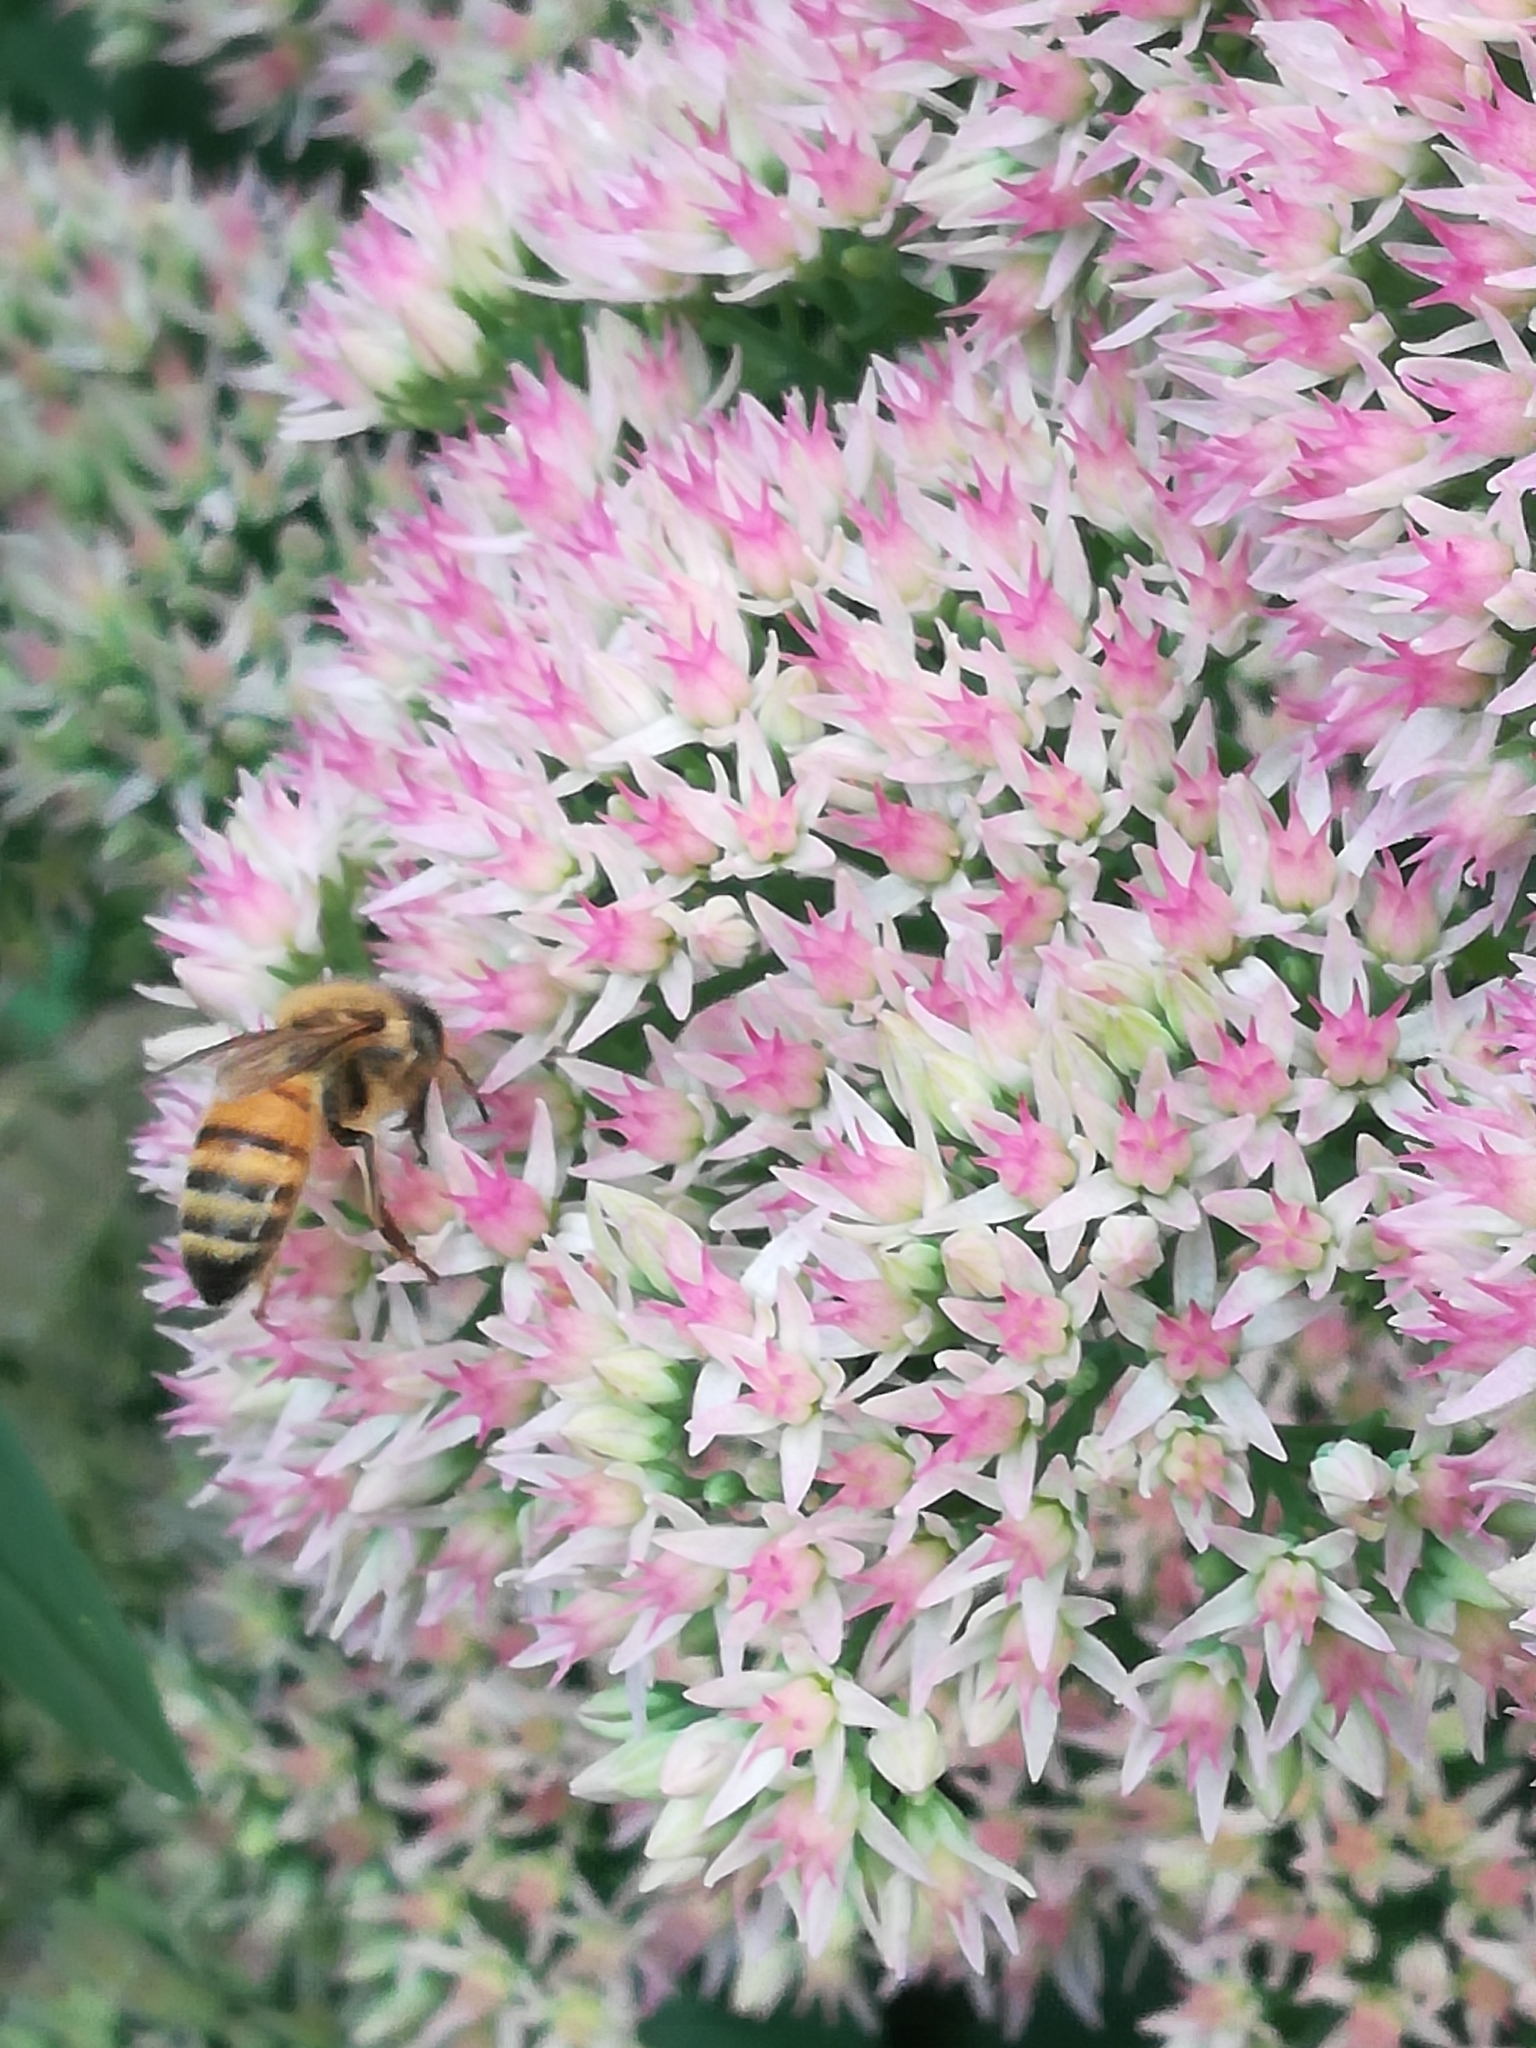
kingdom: Animalia
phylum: Arthropoda
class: Insecta
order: Hymenoptera
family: Apidae
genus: Apis
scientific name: Apis mellifera
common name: Honey bee
